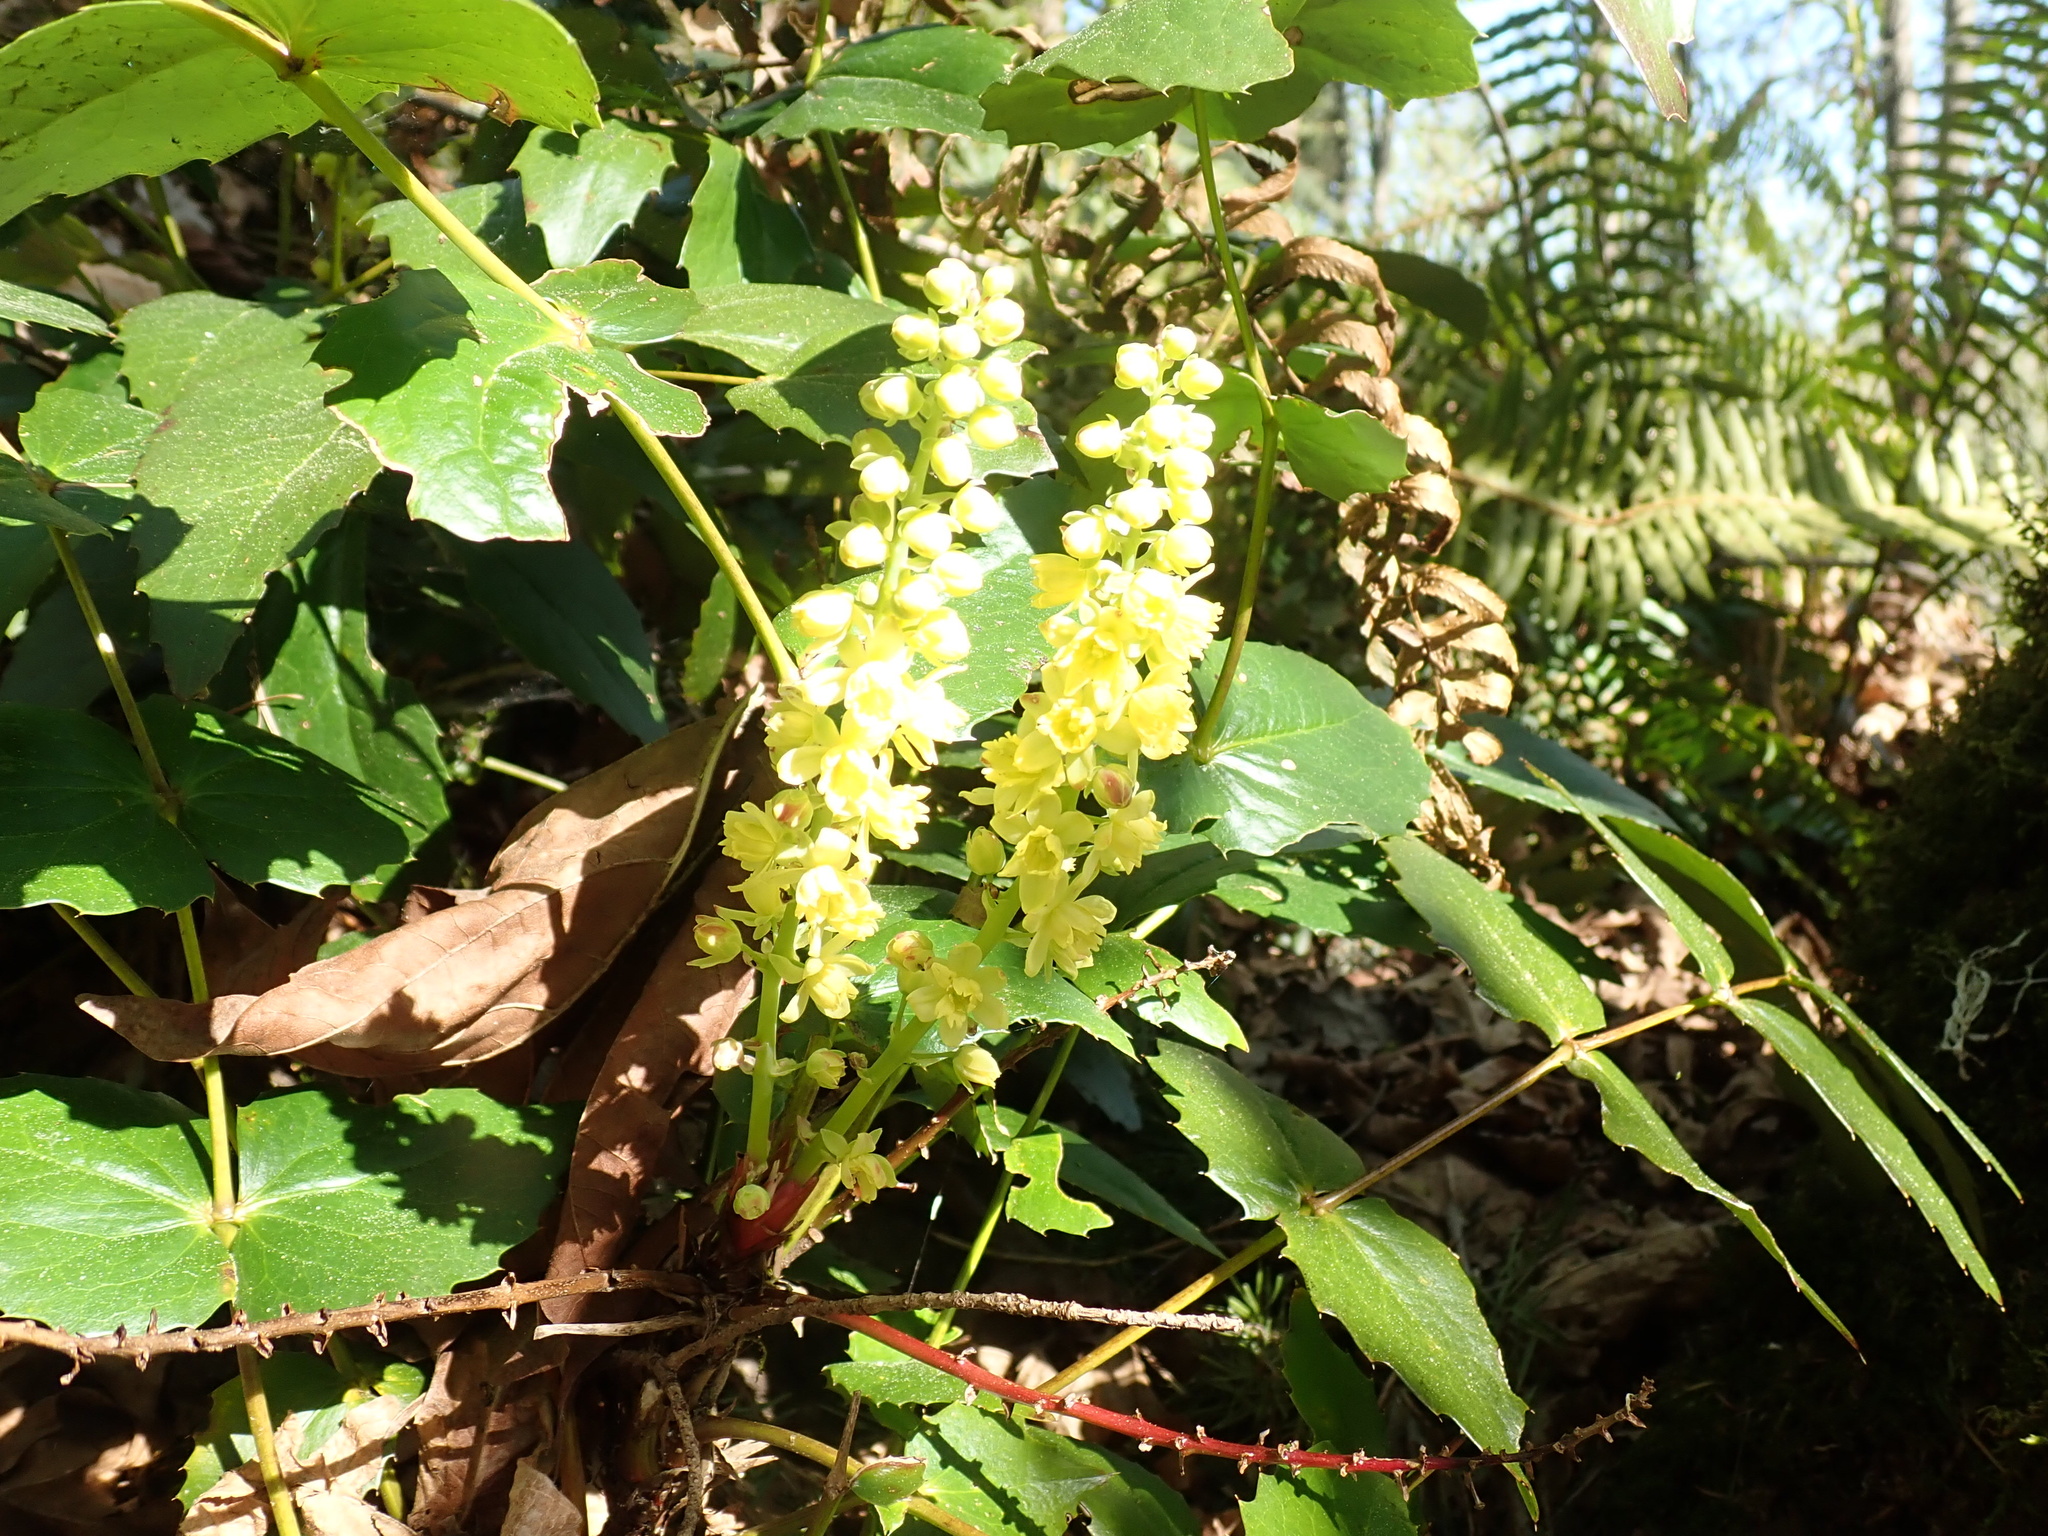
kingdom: Plantae
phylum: Tracheophyta
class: Magnoliopsida
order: Ranunculales
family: Berberidaceae
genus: Mahonia
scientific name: Mahonia nervosa
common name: Cascade oregon-grape
